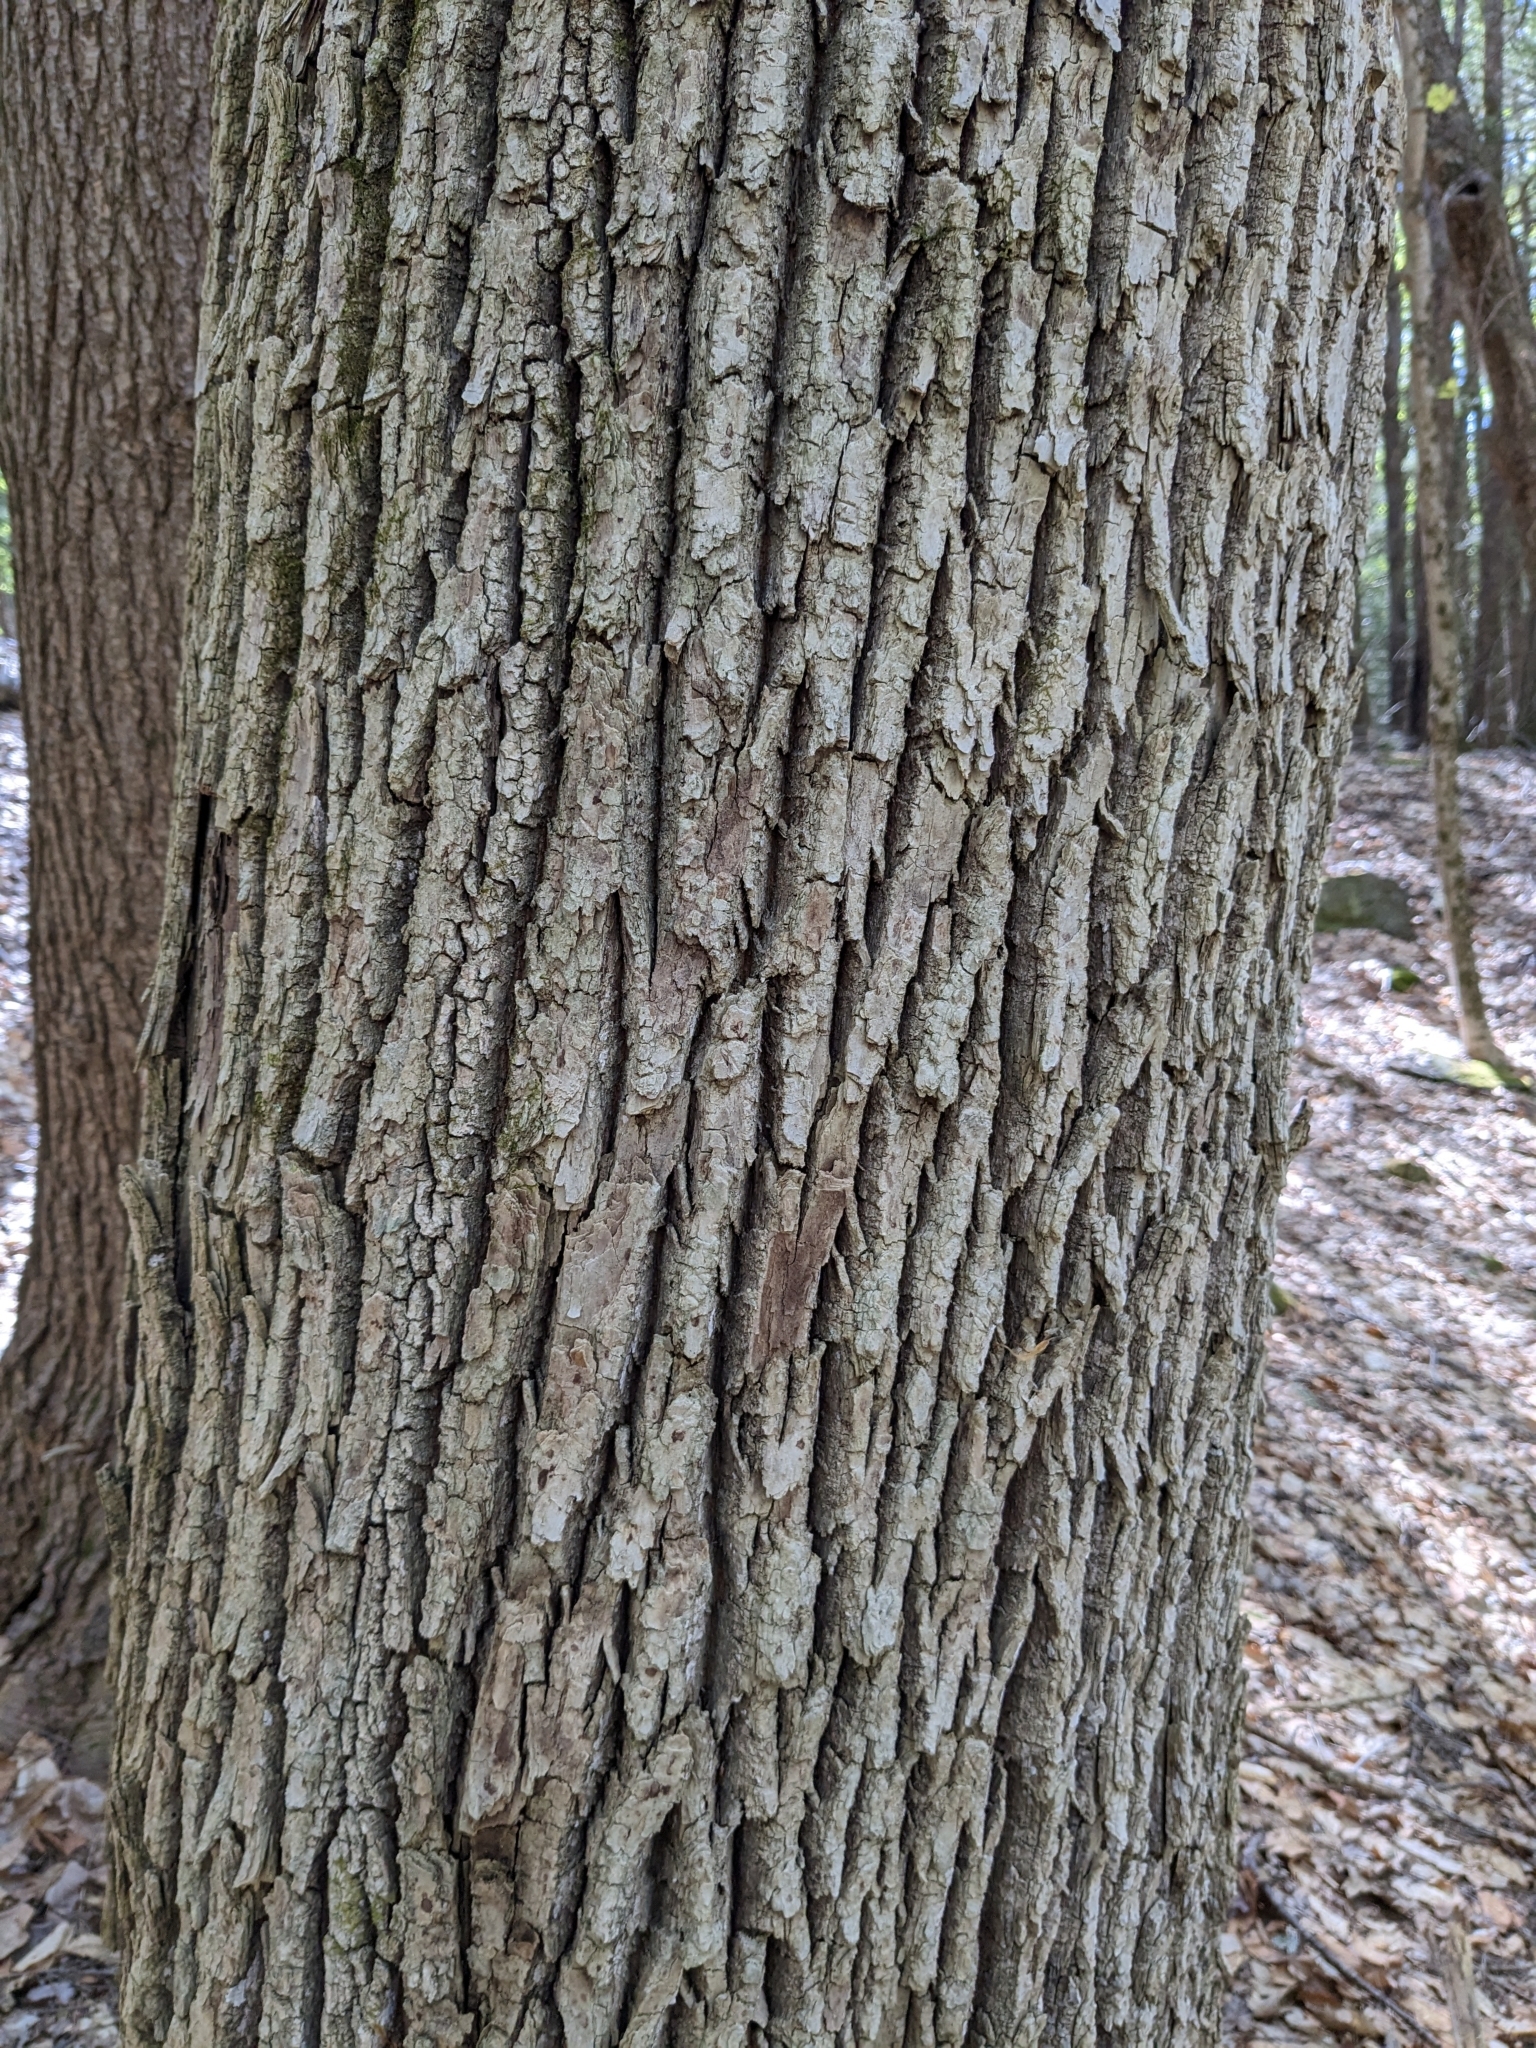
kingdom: Plantae
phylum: Tracheophyta
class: Magnoliopsida
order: Lamiales
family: Oleaceae
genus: Fraxinus
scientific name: Fraxinus
